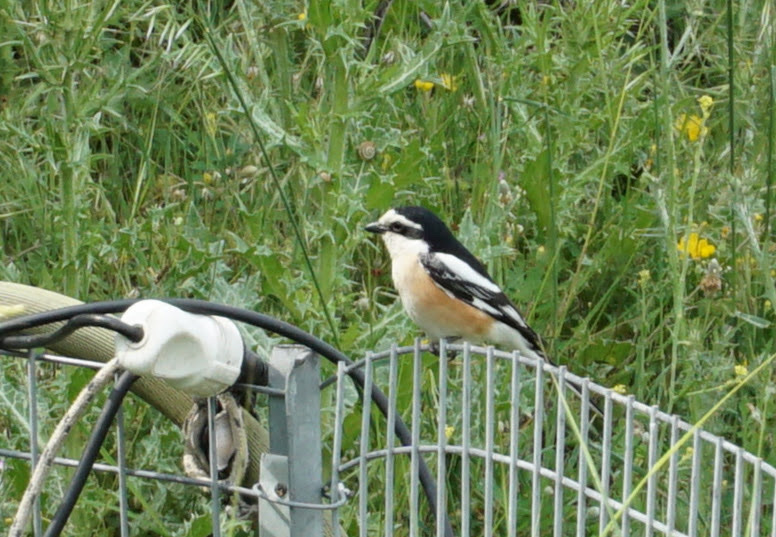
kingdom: Animalia
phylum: Chordata
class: Aves
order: Passeriformes
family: Laniidae
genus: Lanius
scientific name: Lanius nubicus
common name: Masked shrike
